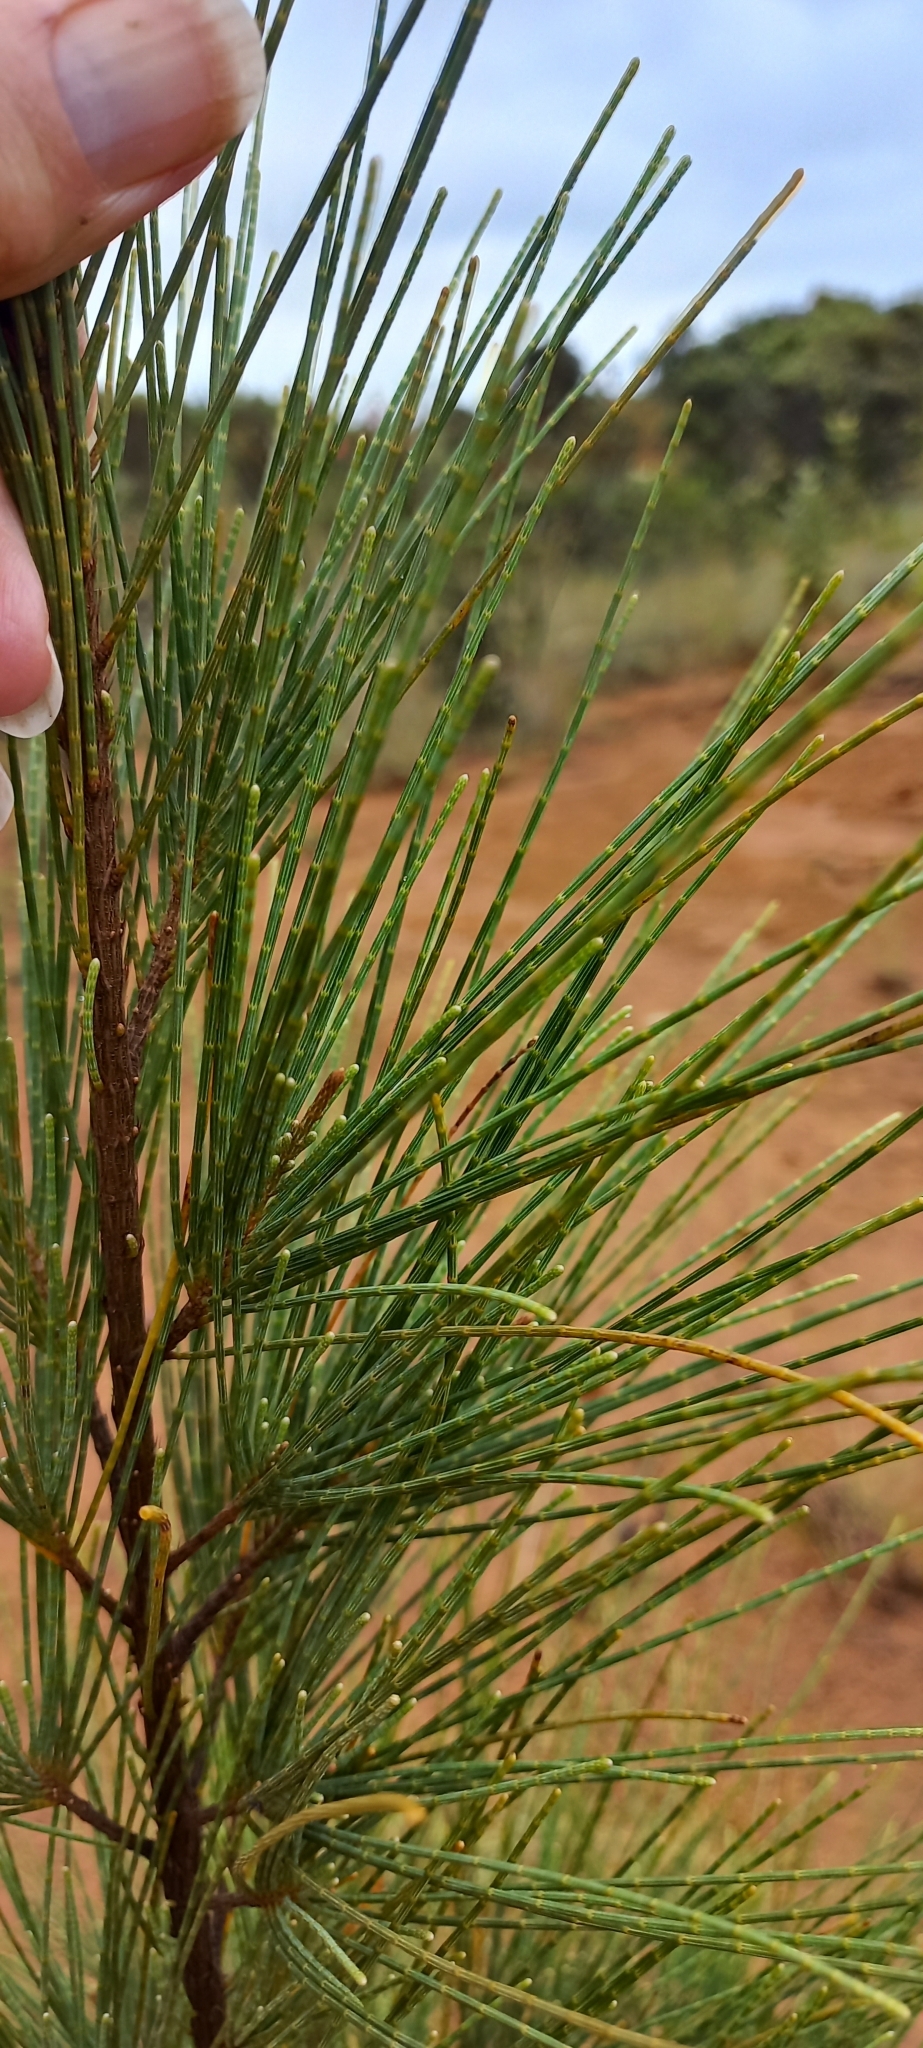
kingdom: Plantae
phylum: Tracheophyta
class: Magnoliopsida
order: Fagales
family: Casuarinaceae
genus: Casuarina
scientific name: Casuarina equisetifolia
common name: Beach sheoak
